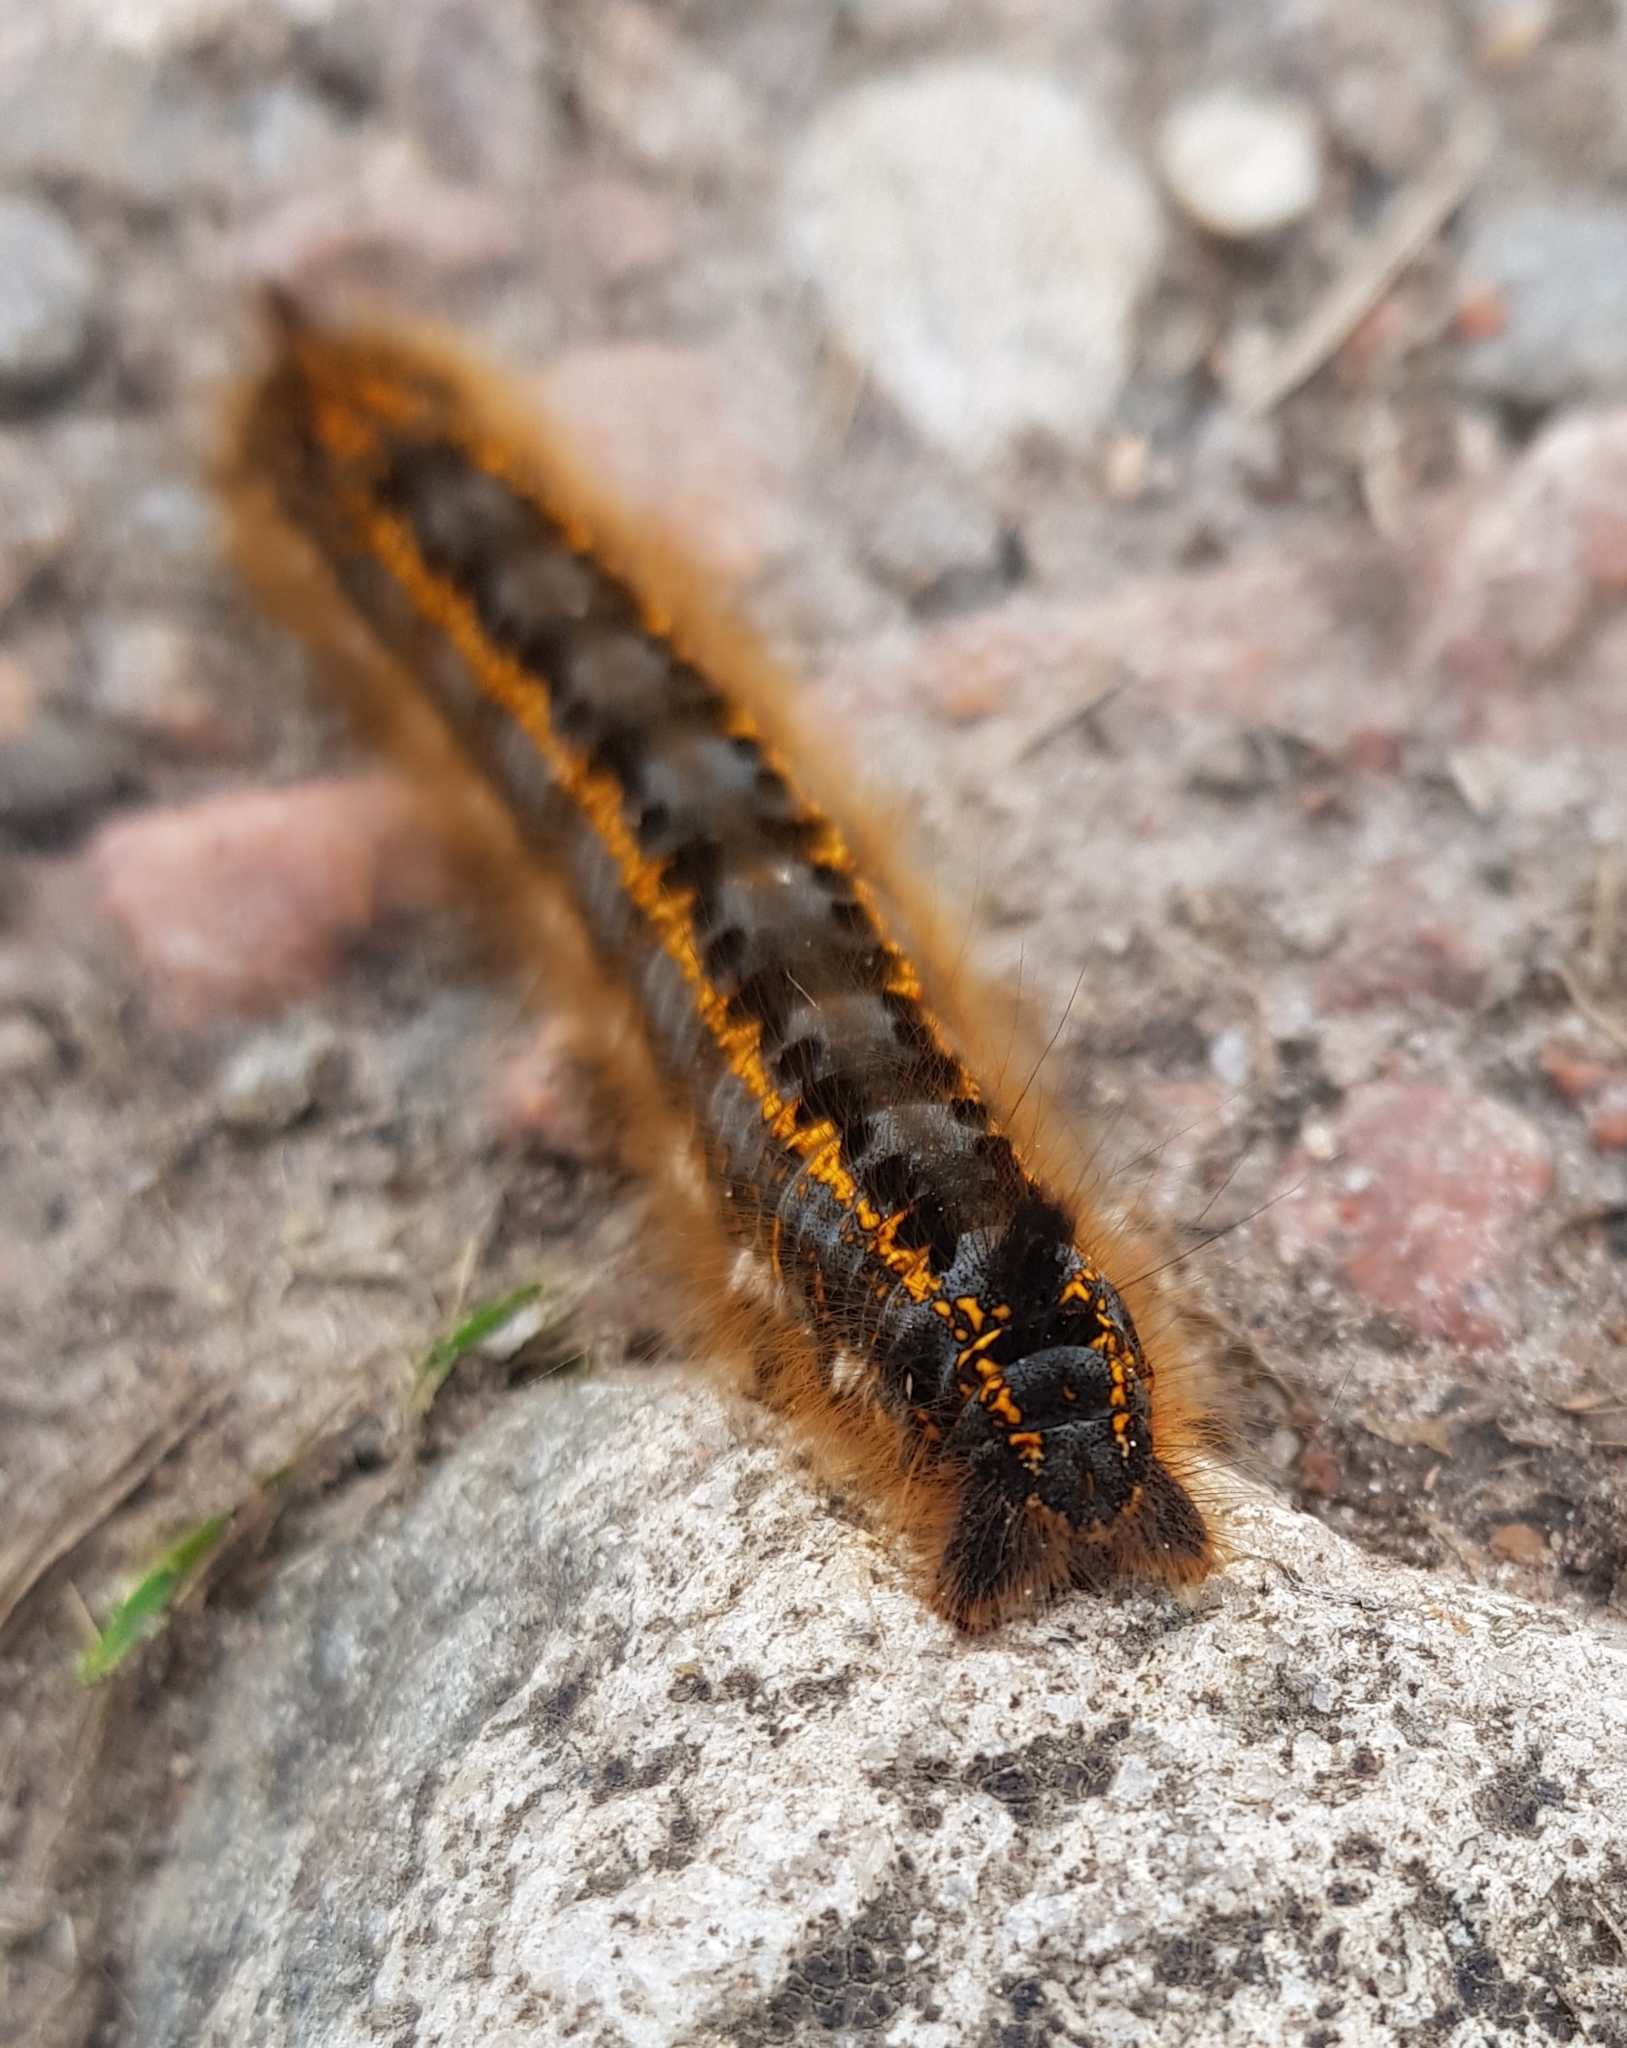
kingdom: Animalia
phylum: Arthropoda
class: Insecta
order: Lepidoptera
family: Lasiocampidae
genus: Euthrix
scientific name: Euthrix potatoria
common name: Drinker
